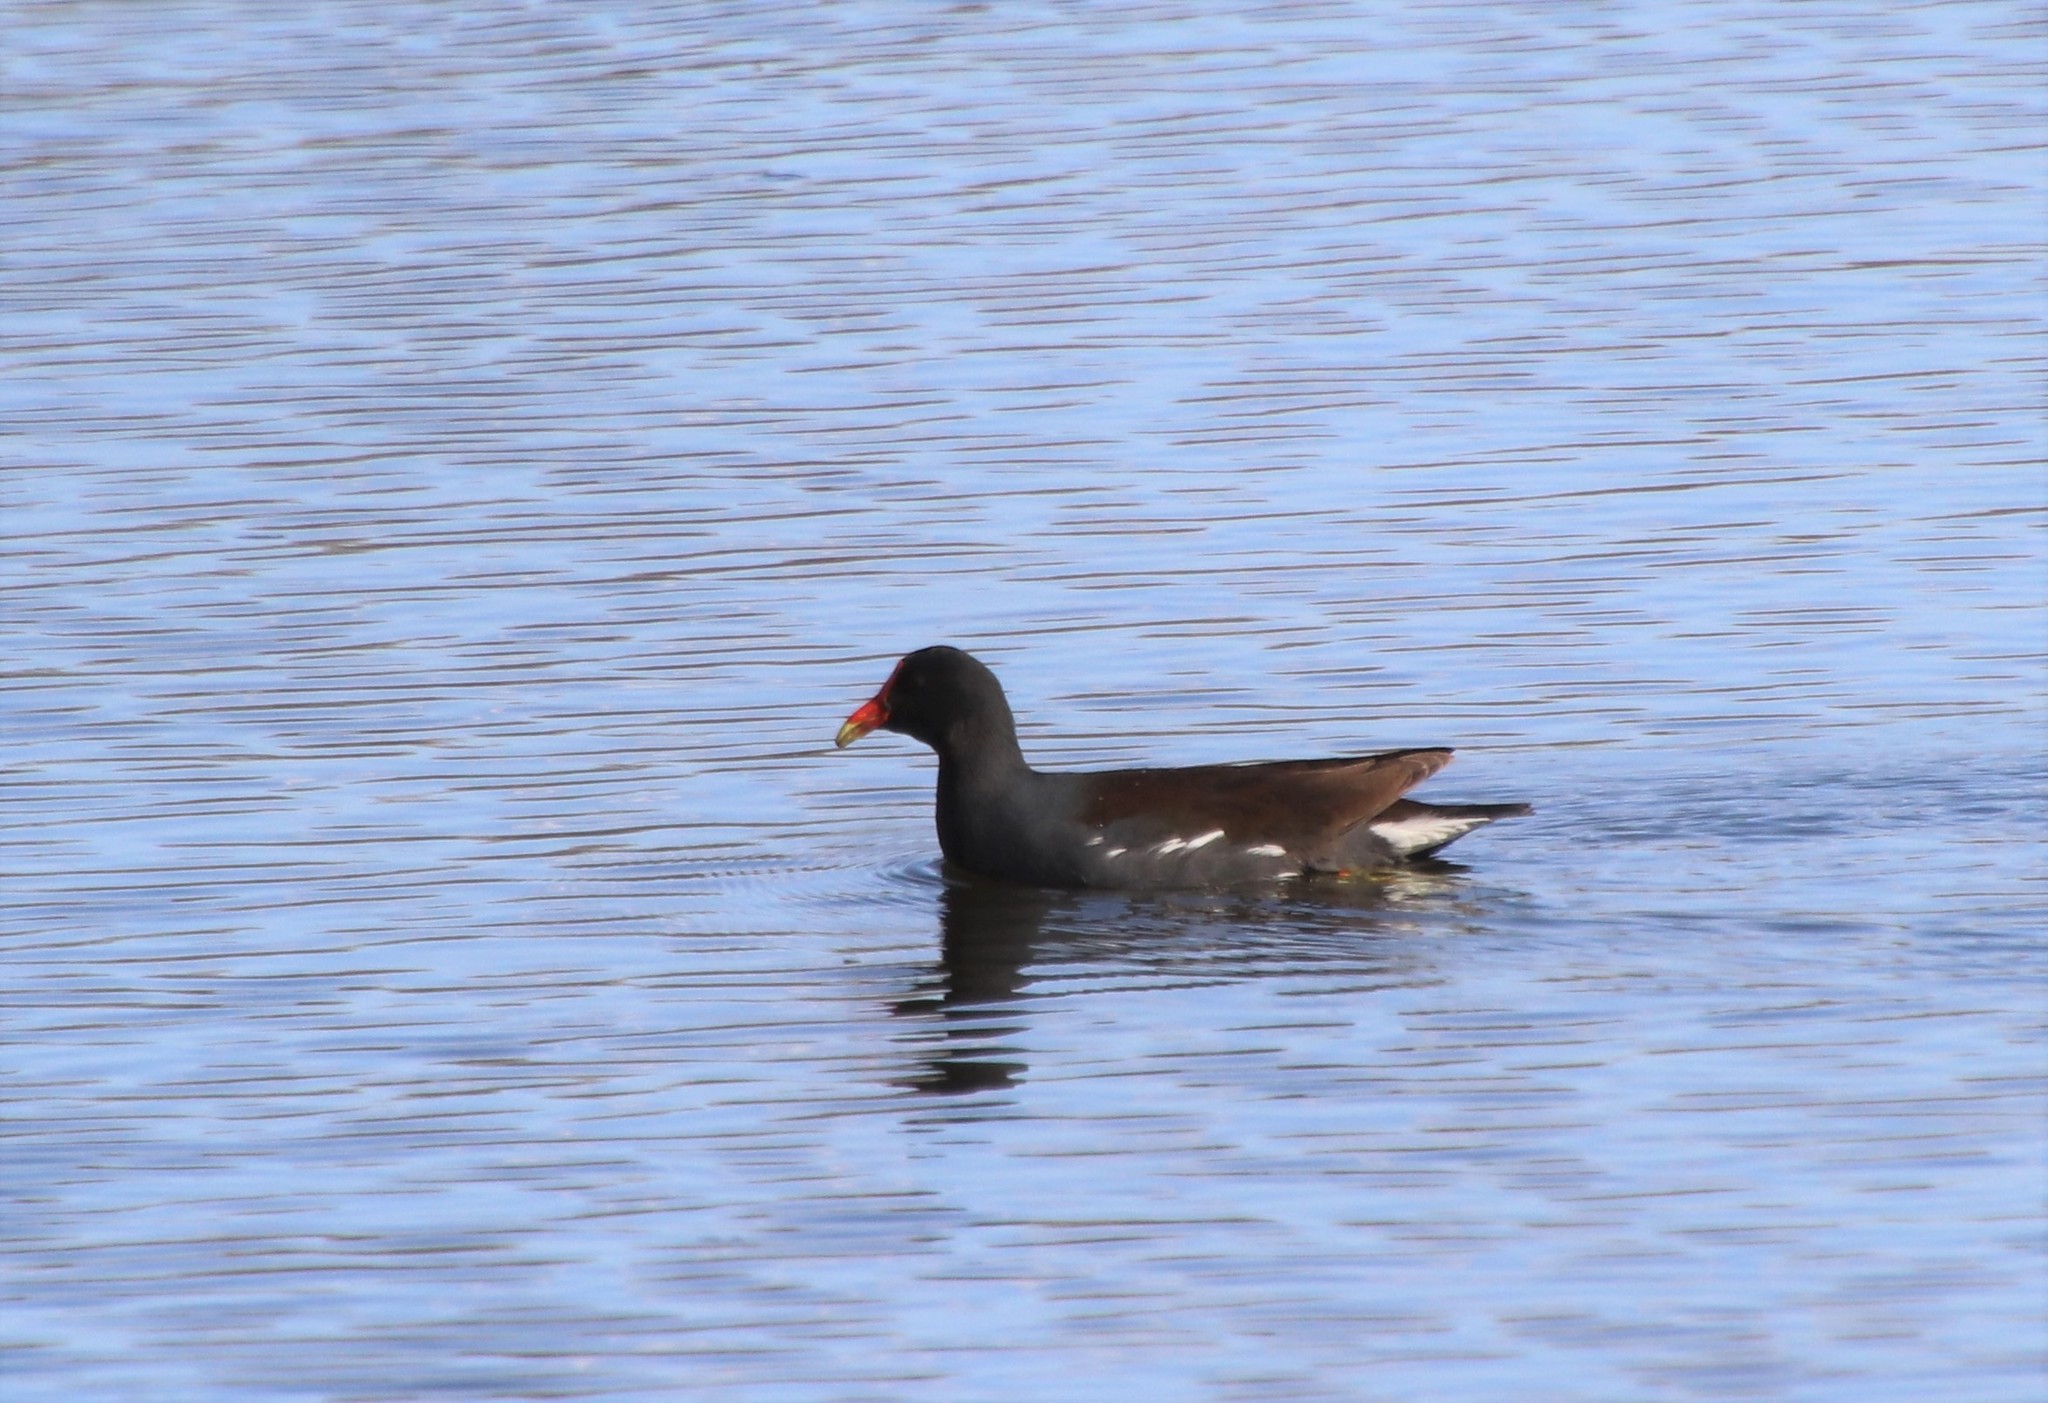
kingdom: Animalia
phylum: Chordata
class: Aves
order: Gruiformes
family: Rallidae
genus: Gallinula
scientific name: Gallinula chloropus
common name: Common moorhen
